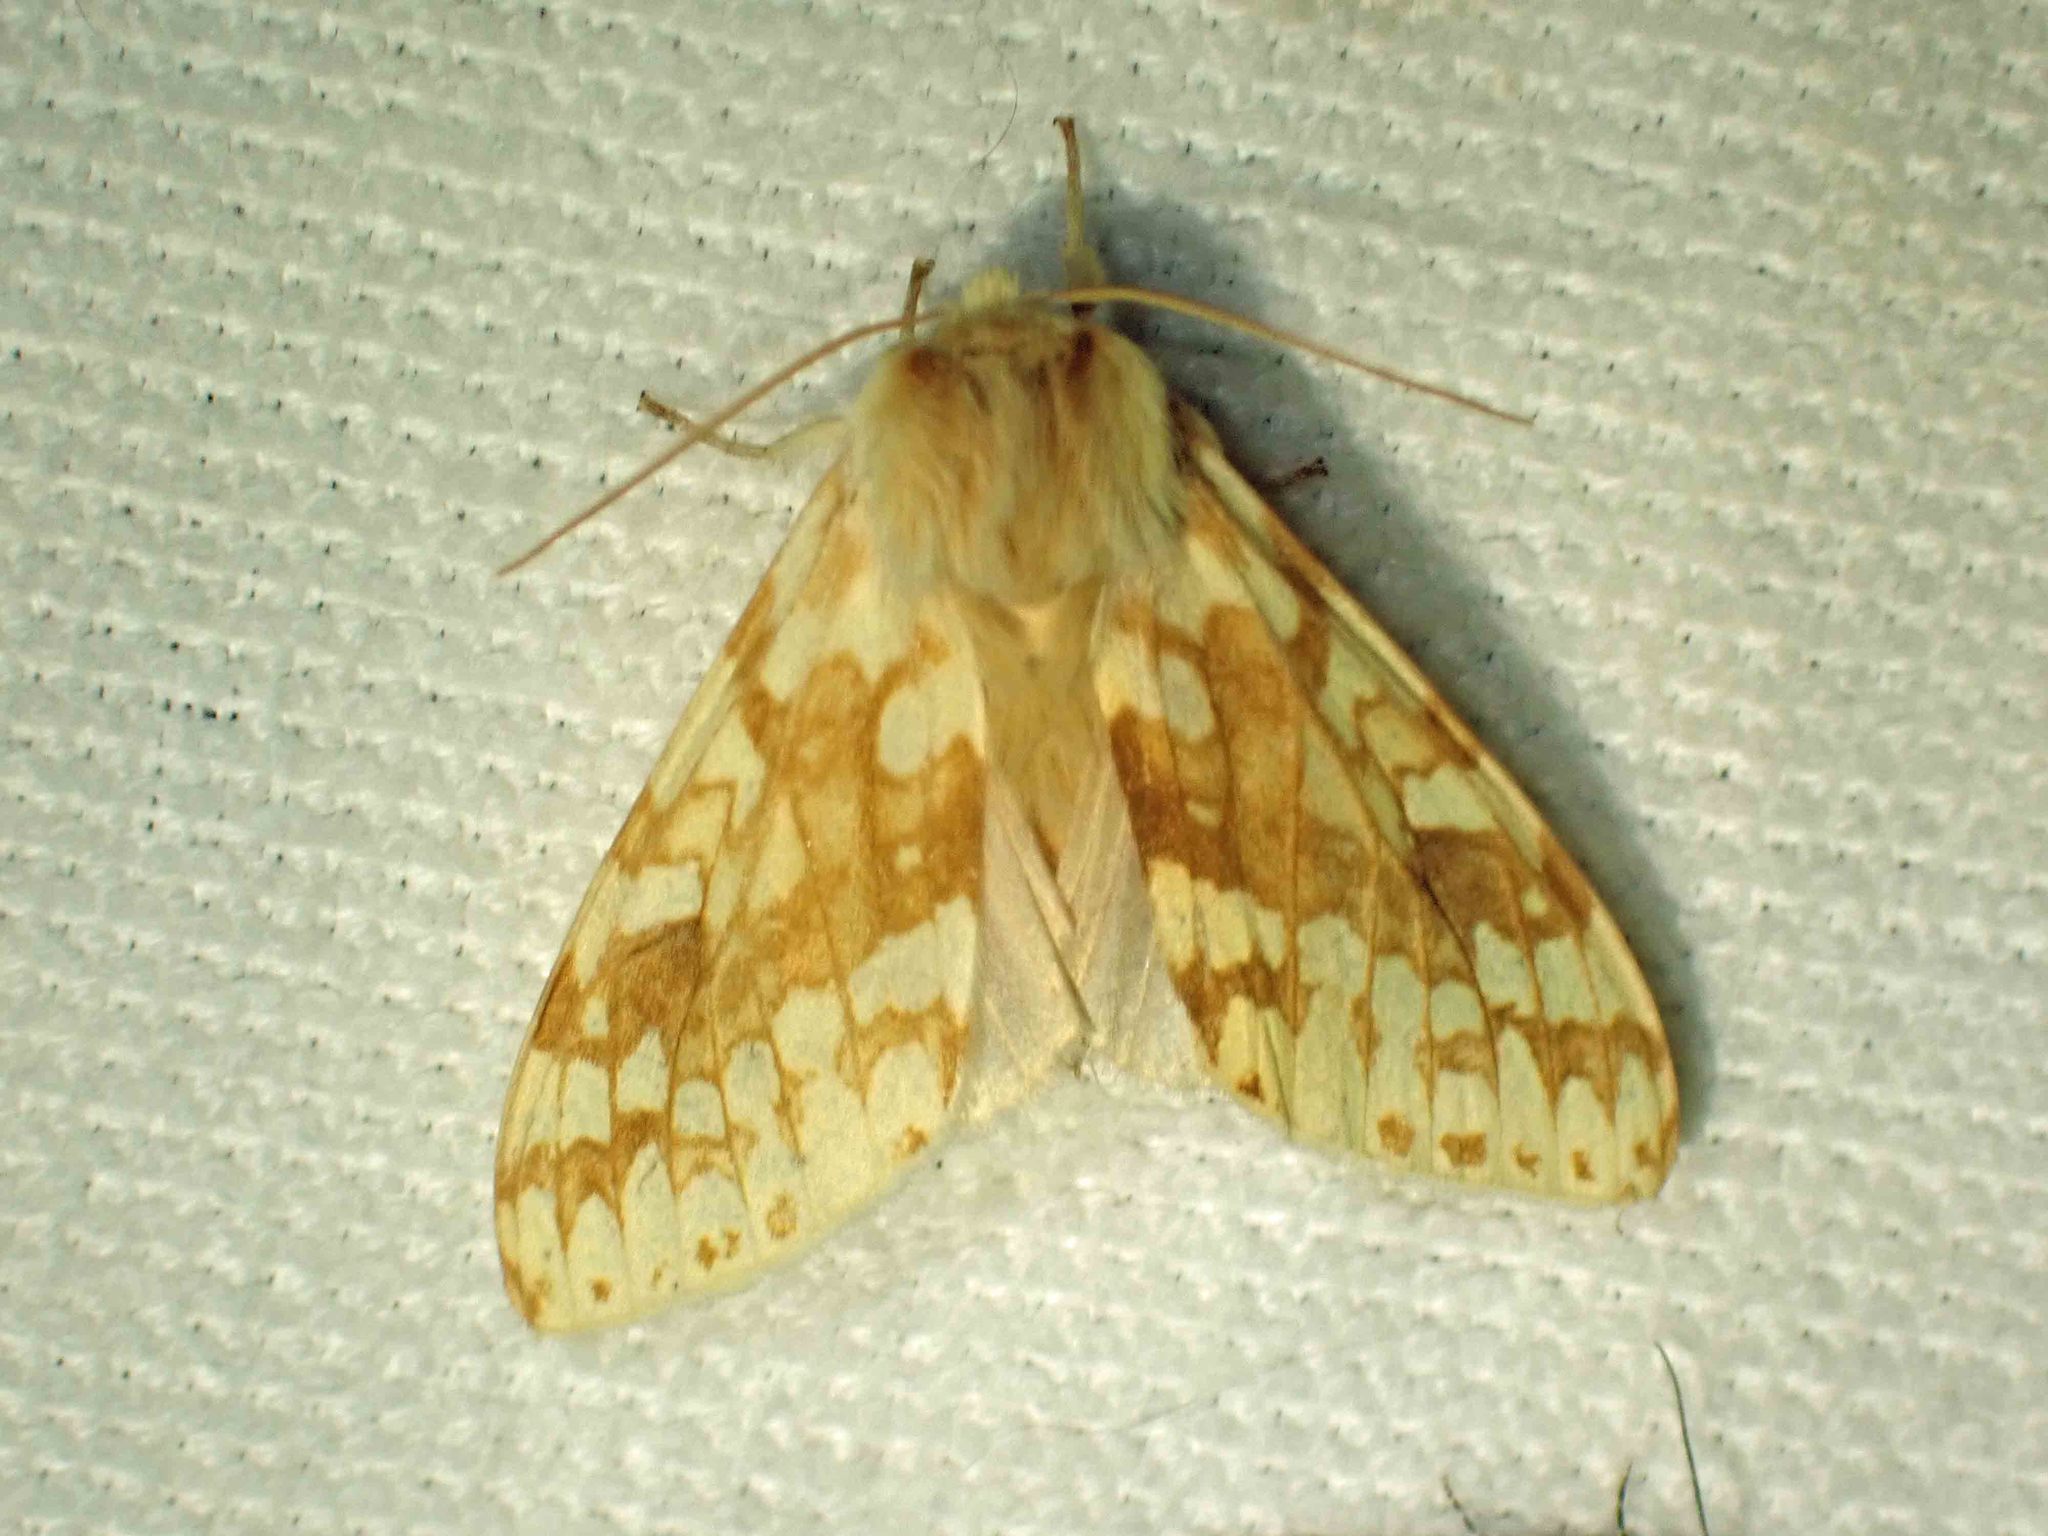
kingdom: Animalia
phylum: Arthropoda
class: Insecta
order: Lepidoptera
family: Erebidae
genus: Lophocampa
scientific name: Lophocampa maculata
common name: Spotted tussock moth
